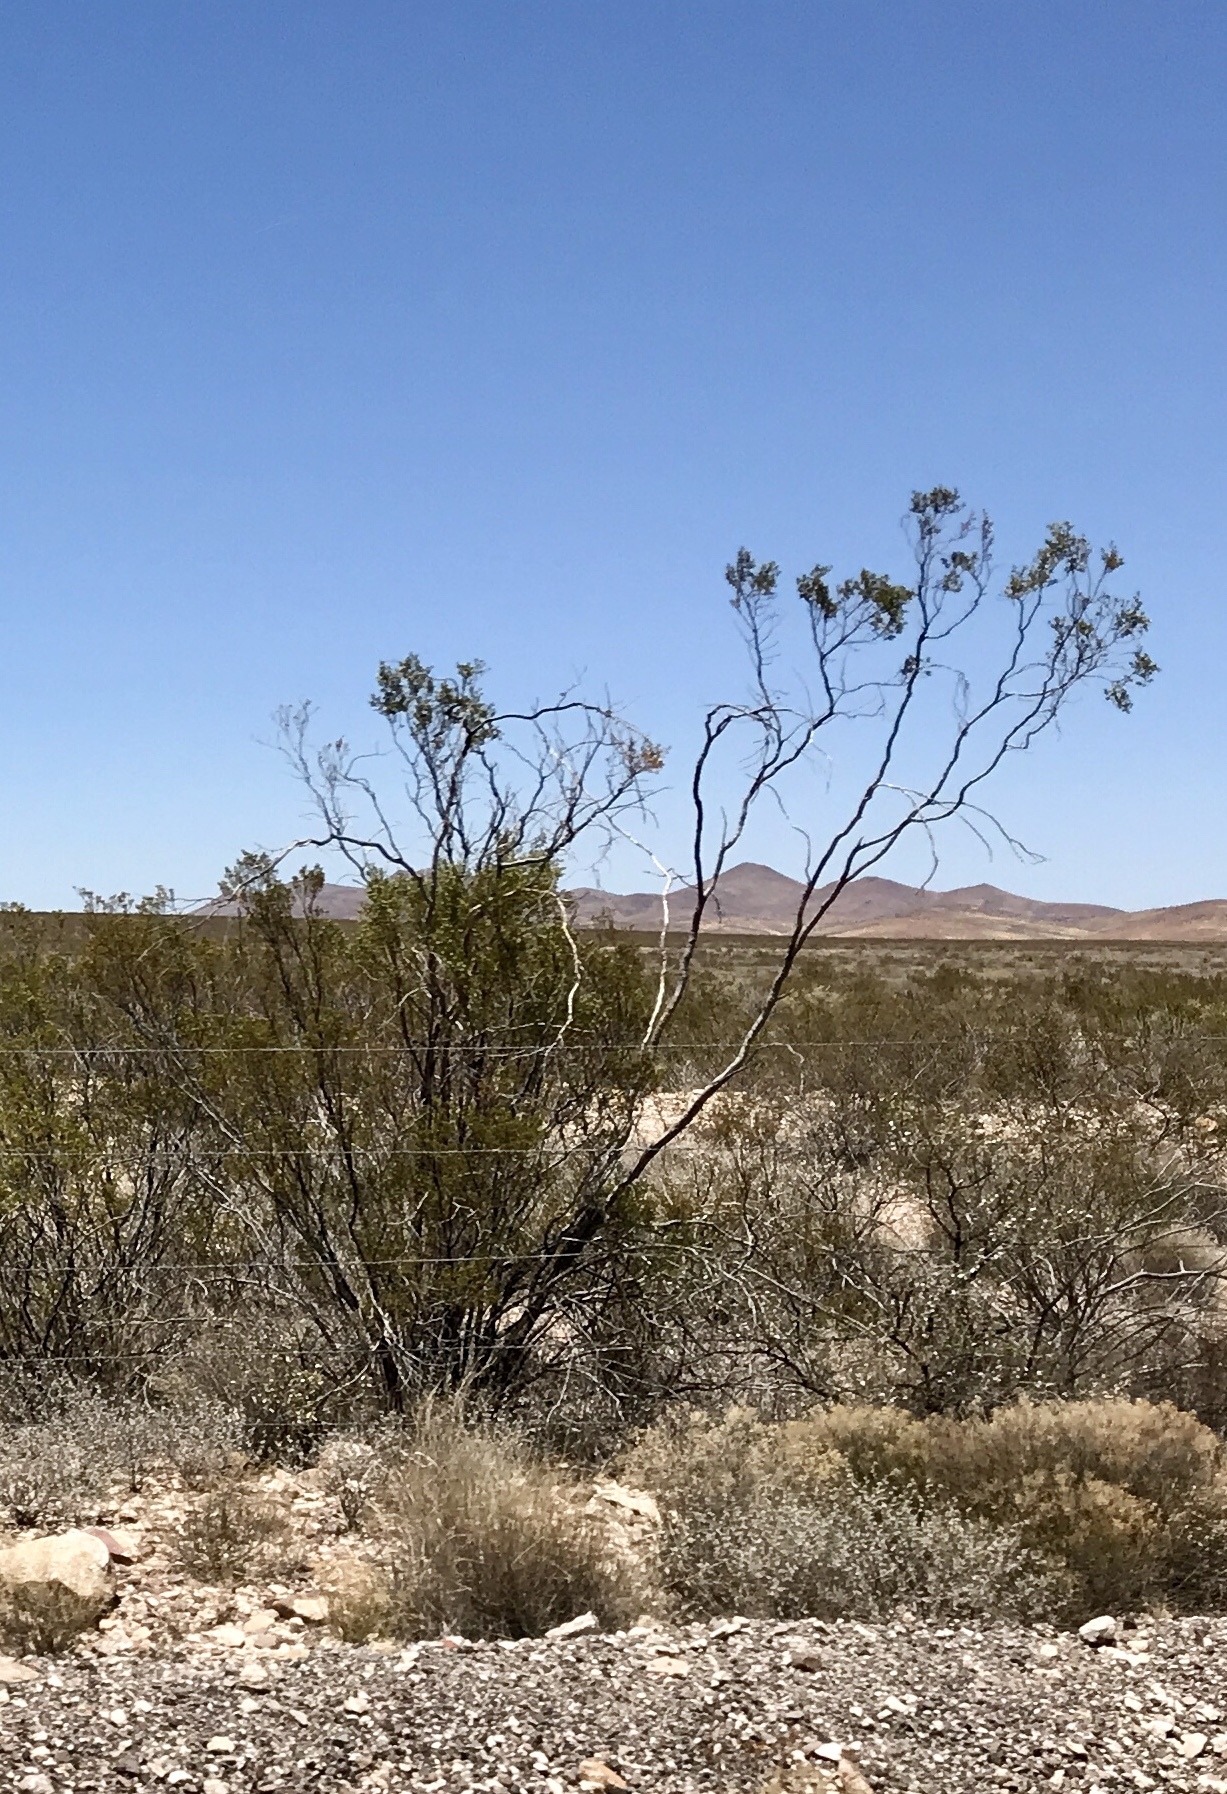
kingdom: Plantae
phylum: Tracheophyta
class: Magnoliopsida
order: Zygophyllales
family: Zygophyllaceae
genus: Larrea
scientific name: Larrea tridentata
